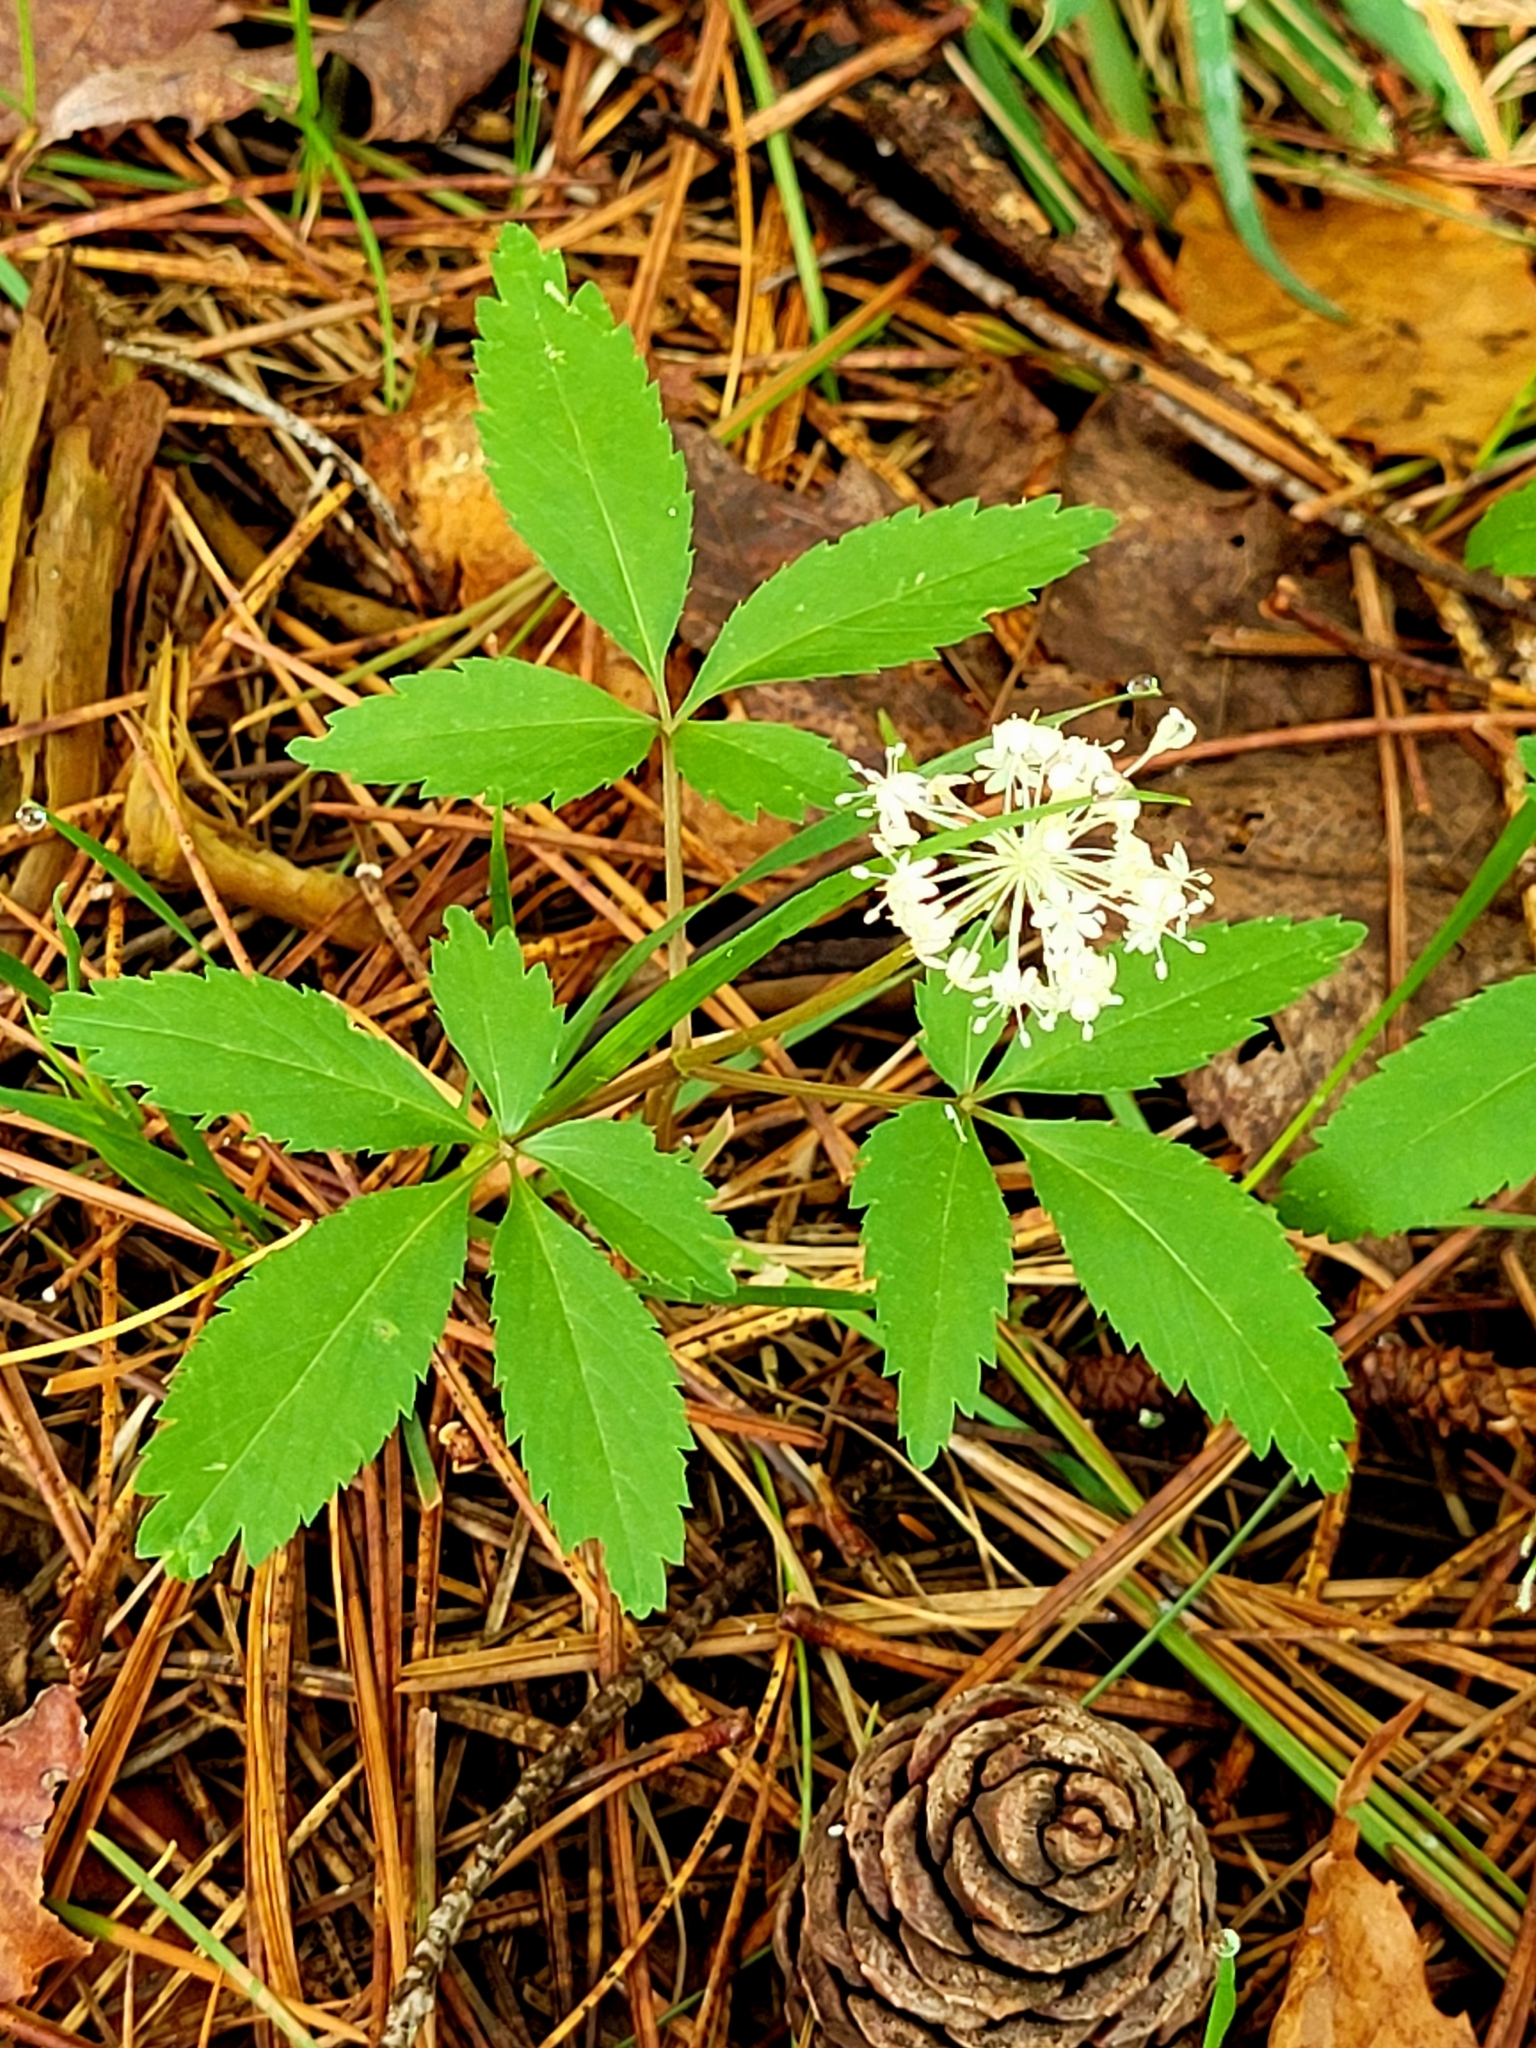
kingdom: Plantae
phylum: Tracheophyta
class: Magnoliopsida
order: Apiales
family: Araliaceae
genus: Panax
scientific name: Panax trifolius
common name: Dwarf ginseng
